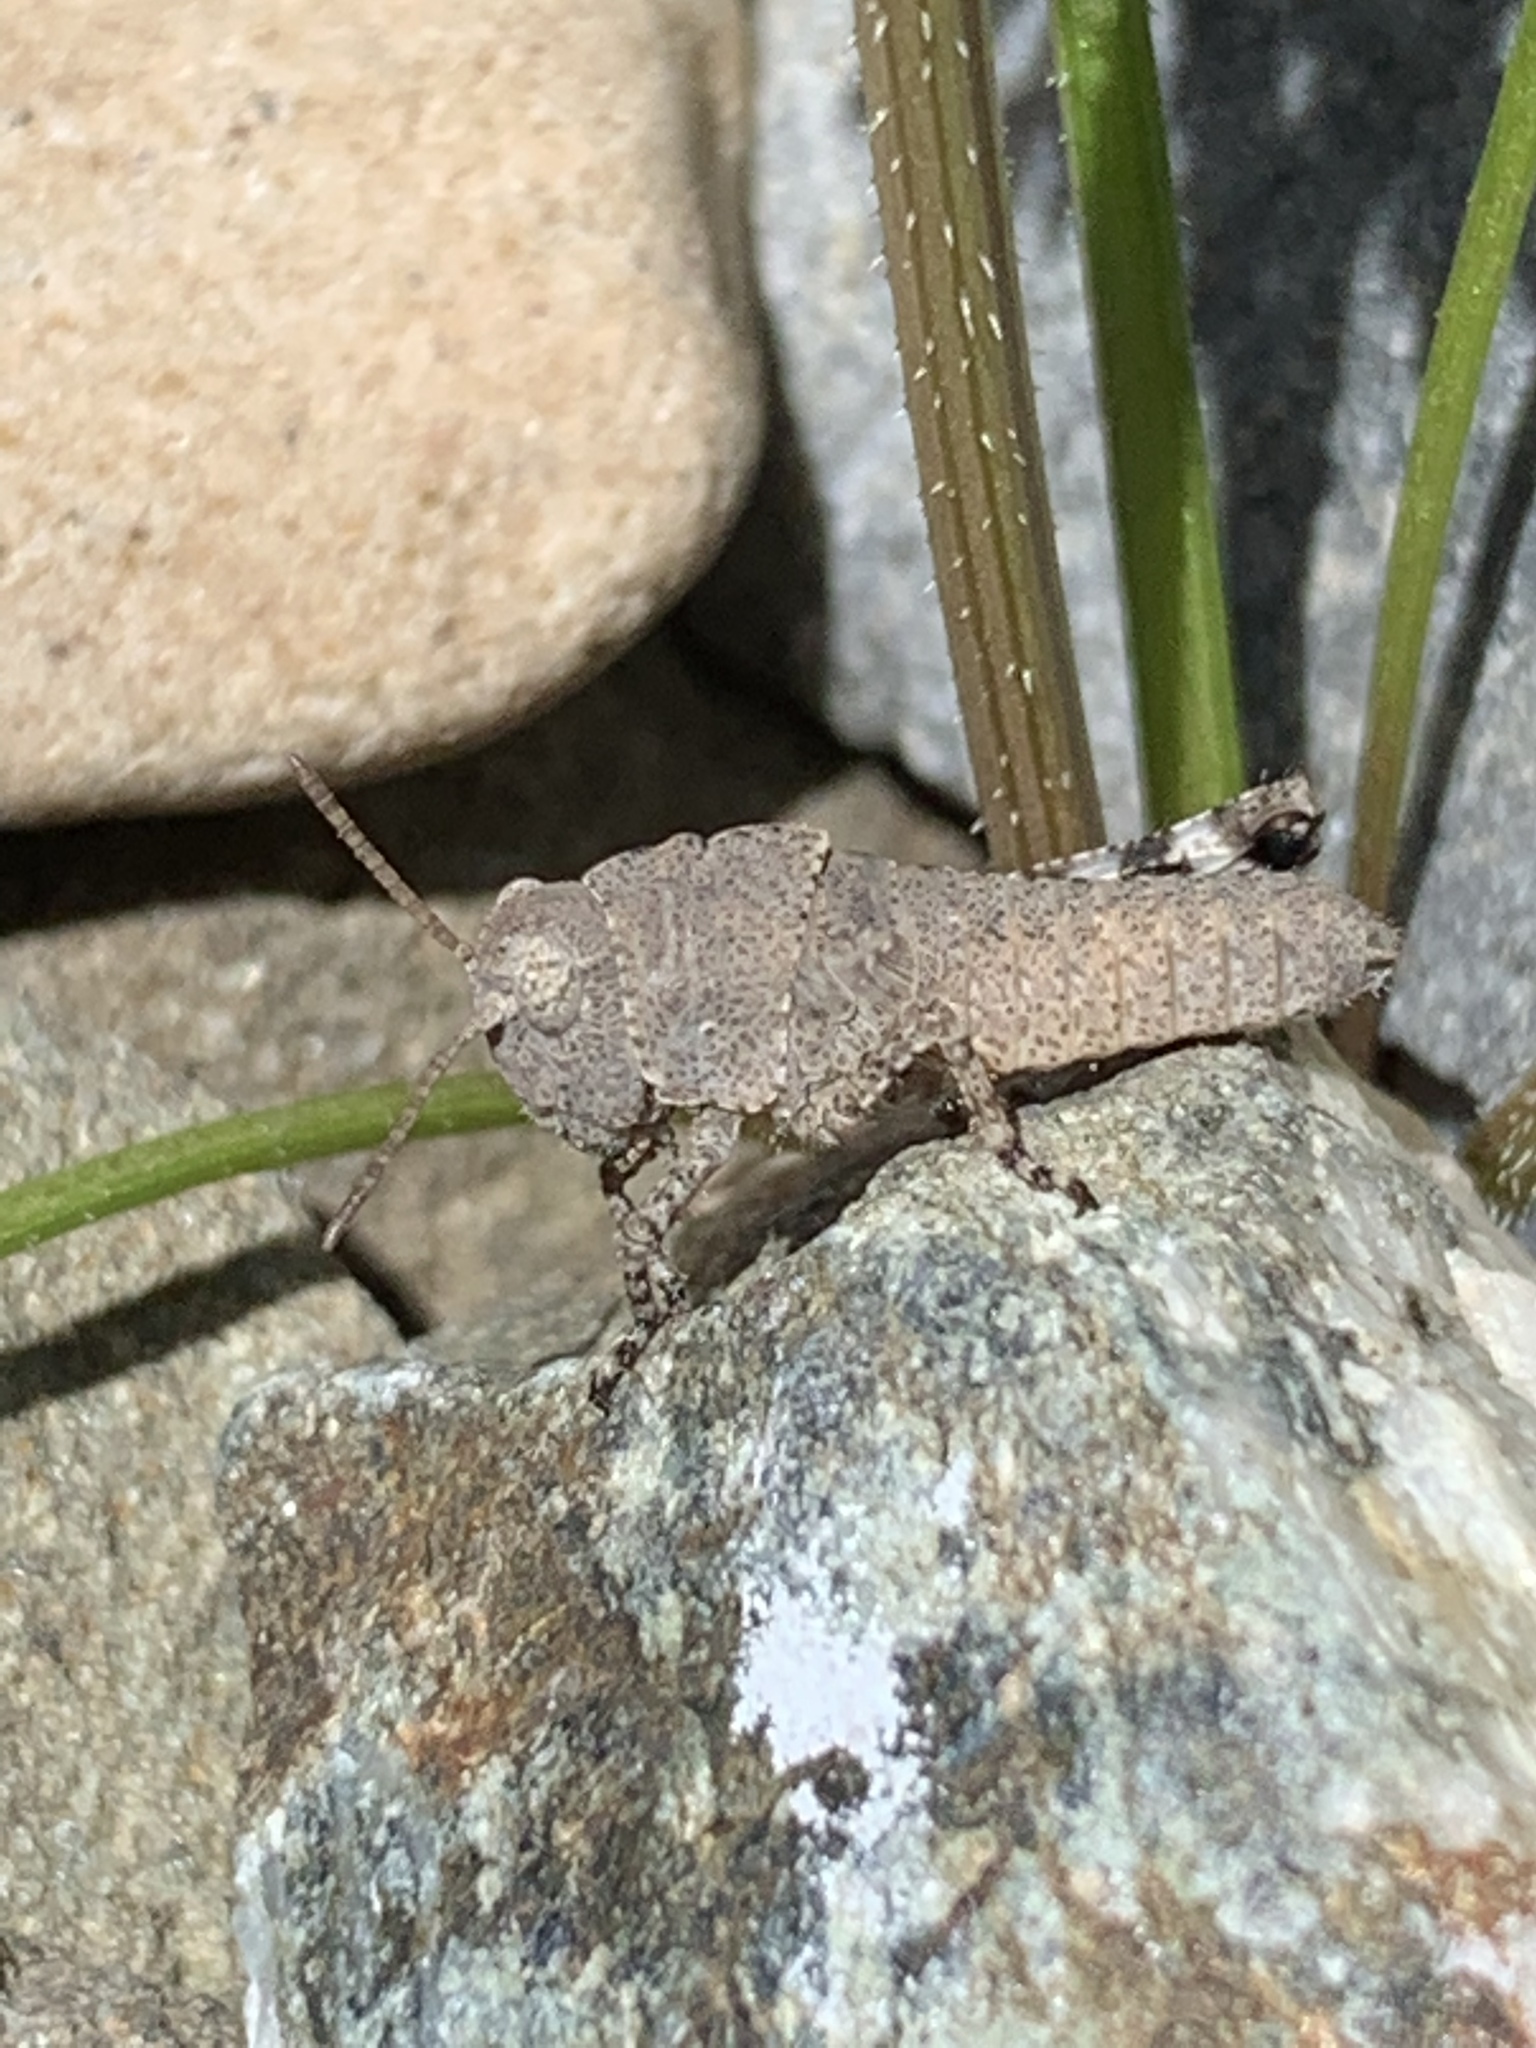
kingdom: Animalia
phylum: Arthropoda
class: Insecta
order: Orthoptera
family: Acrididae
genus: Dissosteira
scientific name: Dissosteira carolina
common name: Carolina grasshopper
